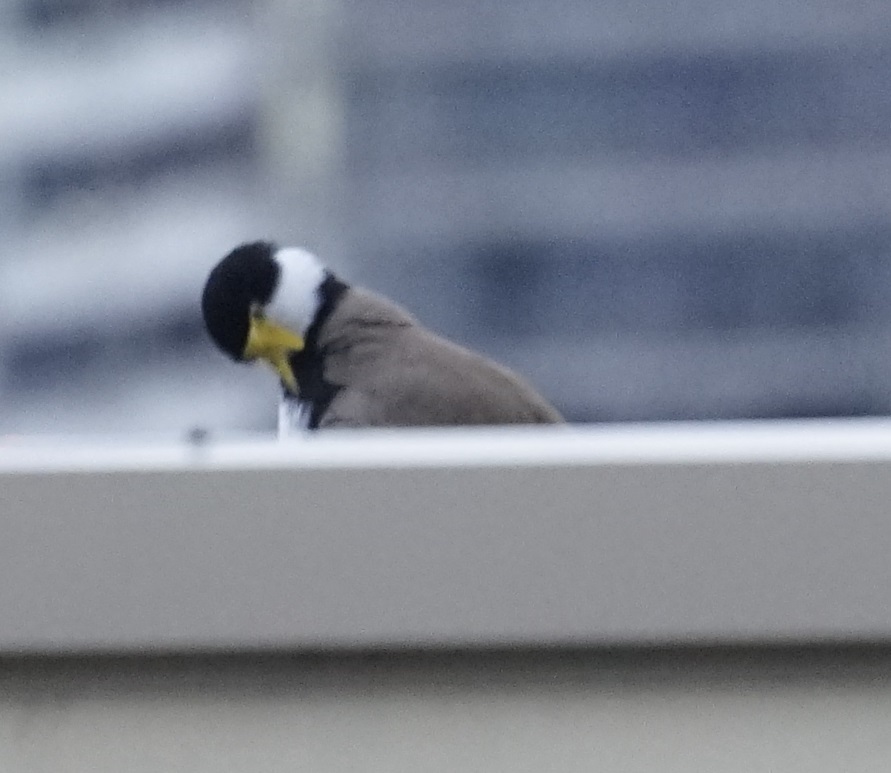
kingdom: Animalia
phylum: Chordata
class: Aves
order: Charadriiformes
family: Charadriidae
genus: Vanellus
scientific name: Vanellus miles
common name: Masked lapwing
